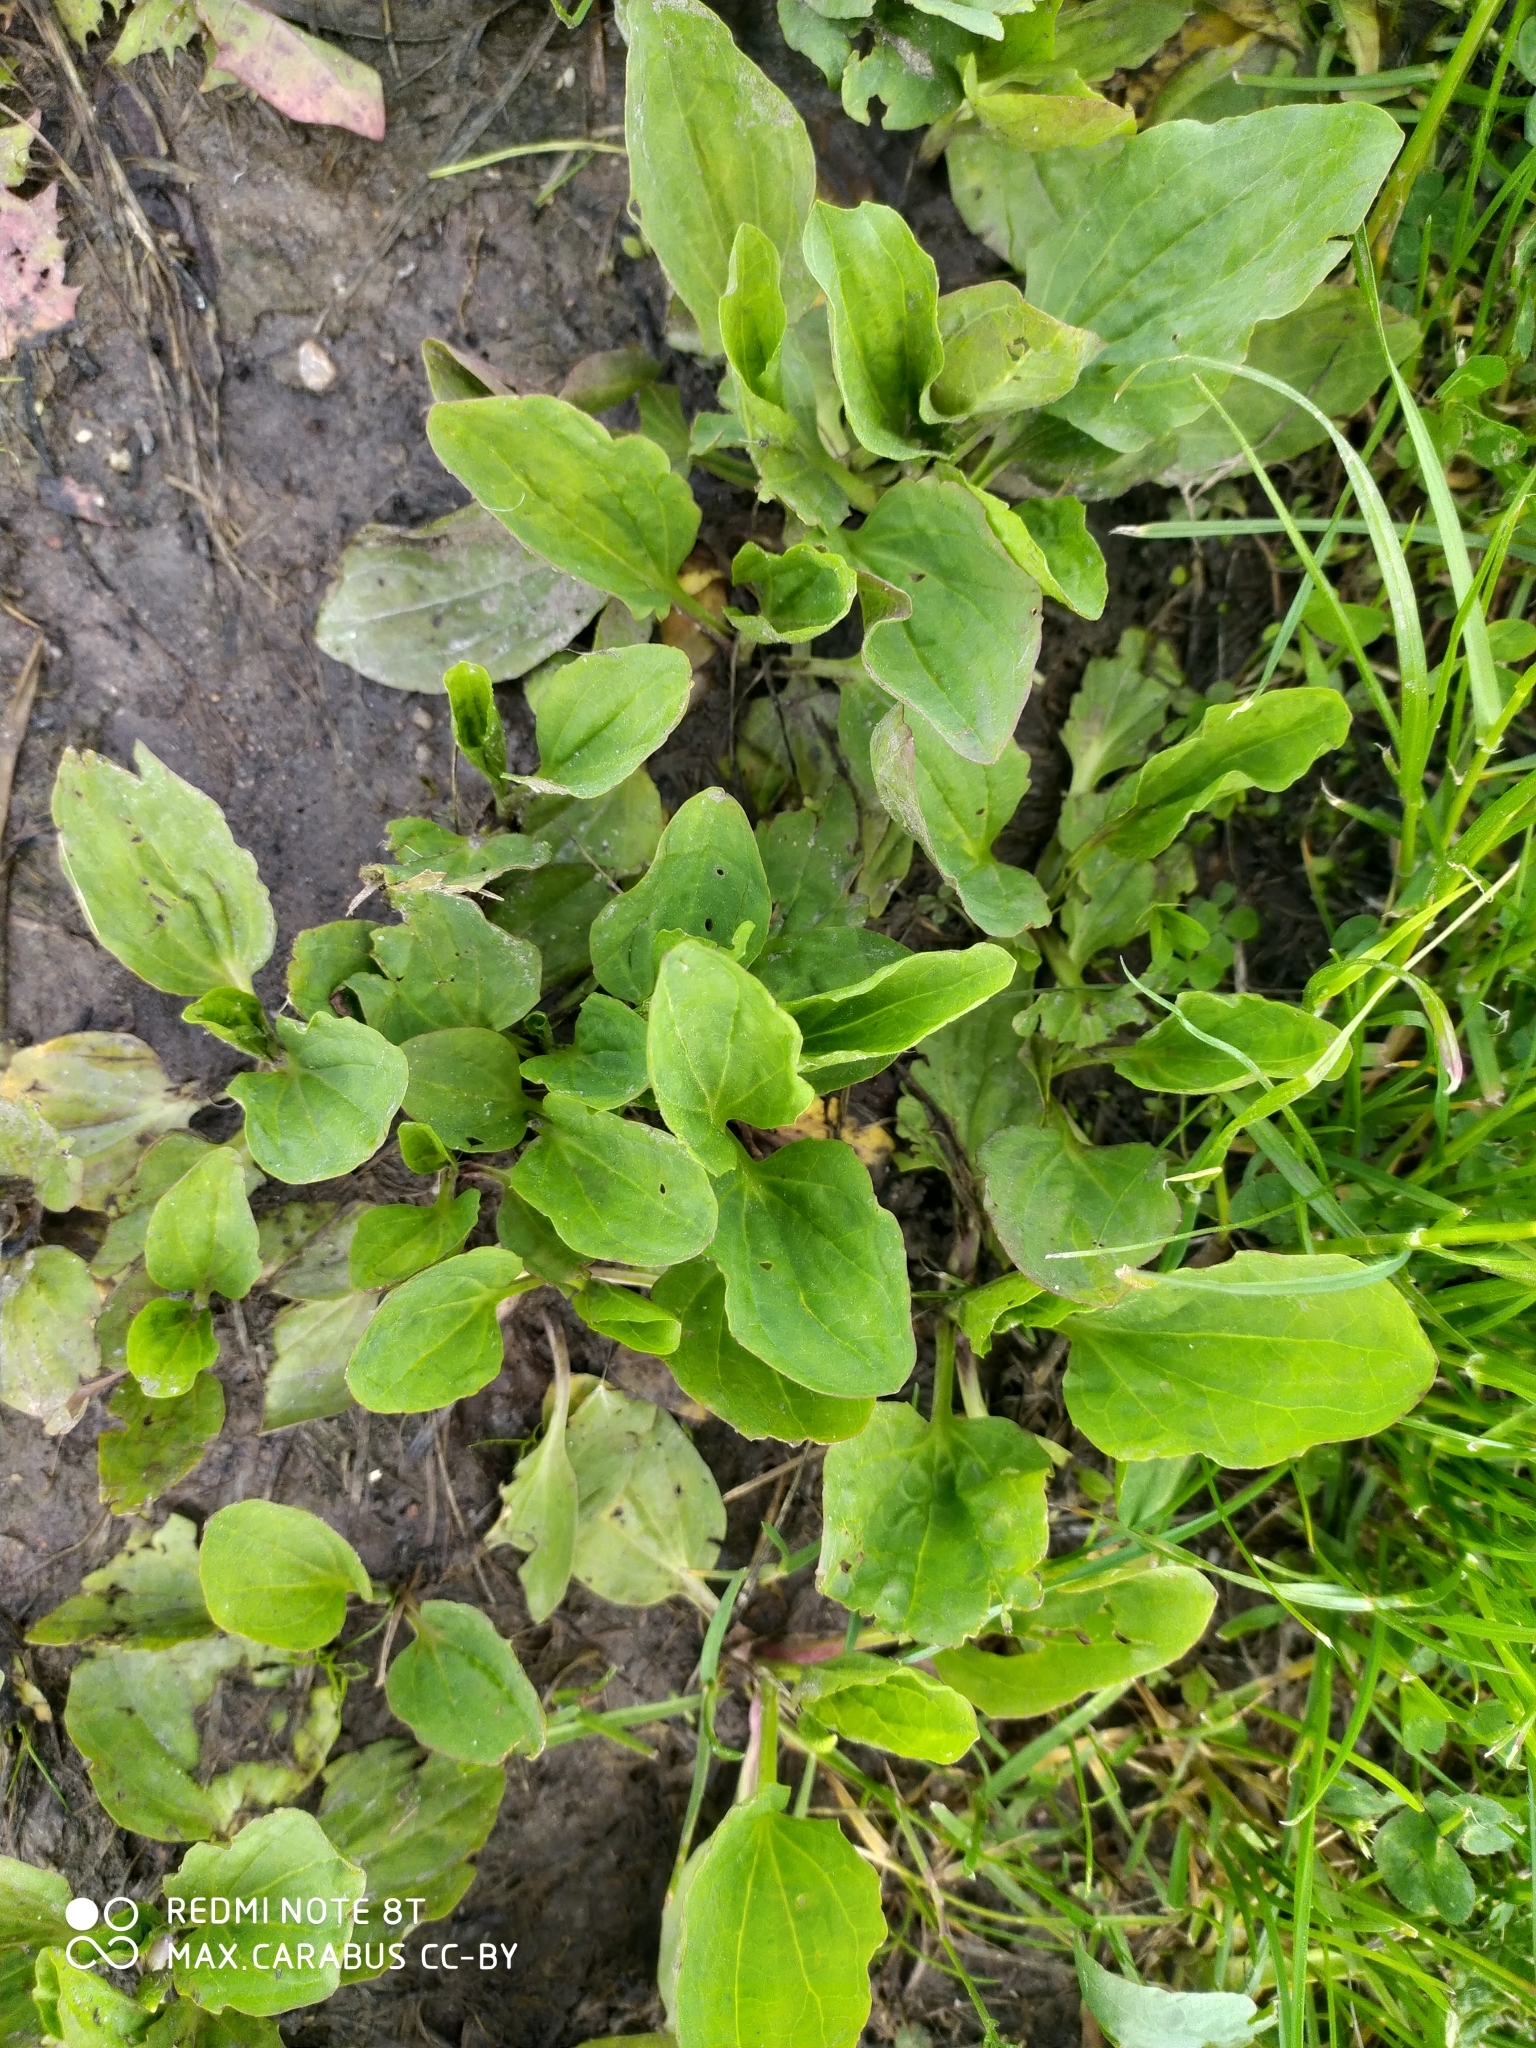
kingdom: Plantae
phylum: Tracheophyta
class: Magnoliopsida
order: Lamiales
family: Plantaginaceae
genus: Plantago
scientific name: Plantago major
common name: Common plantain
